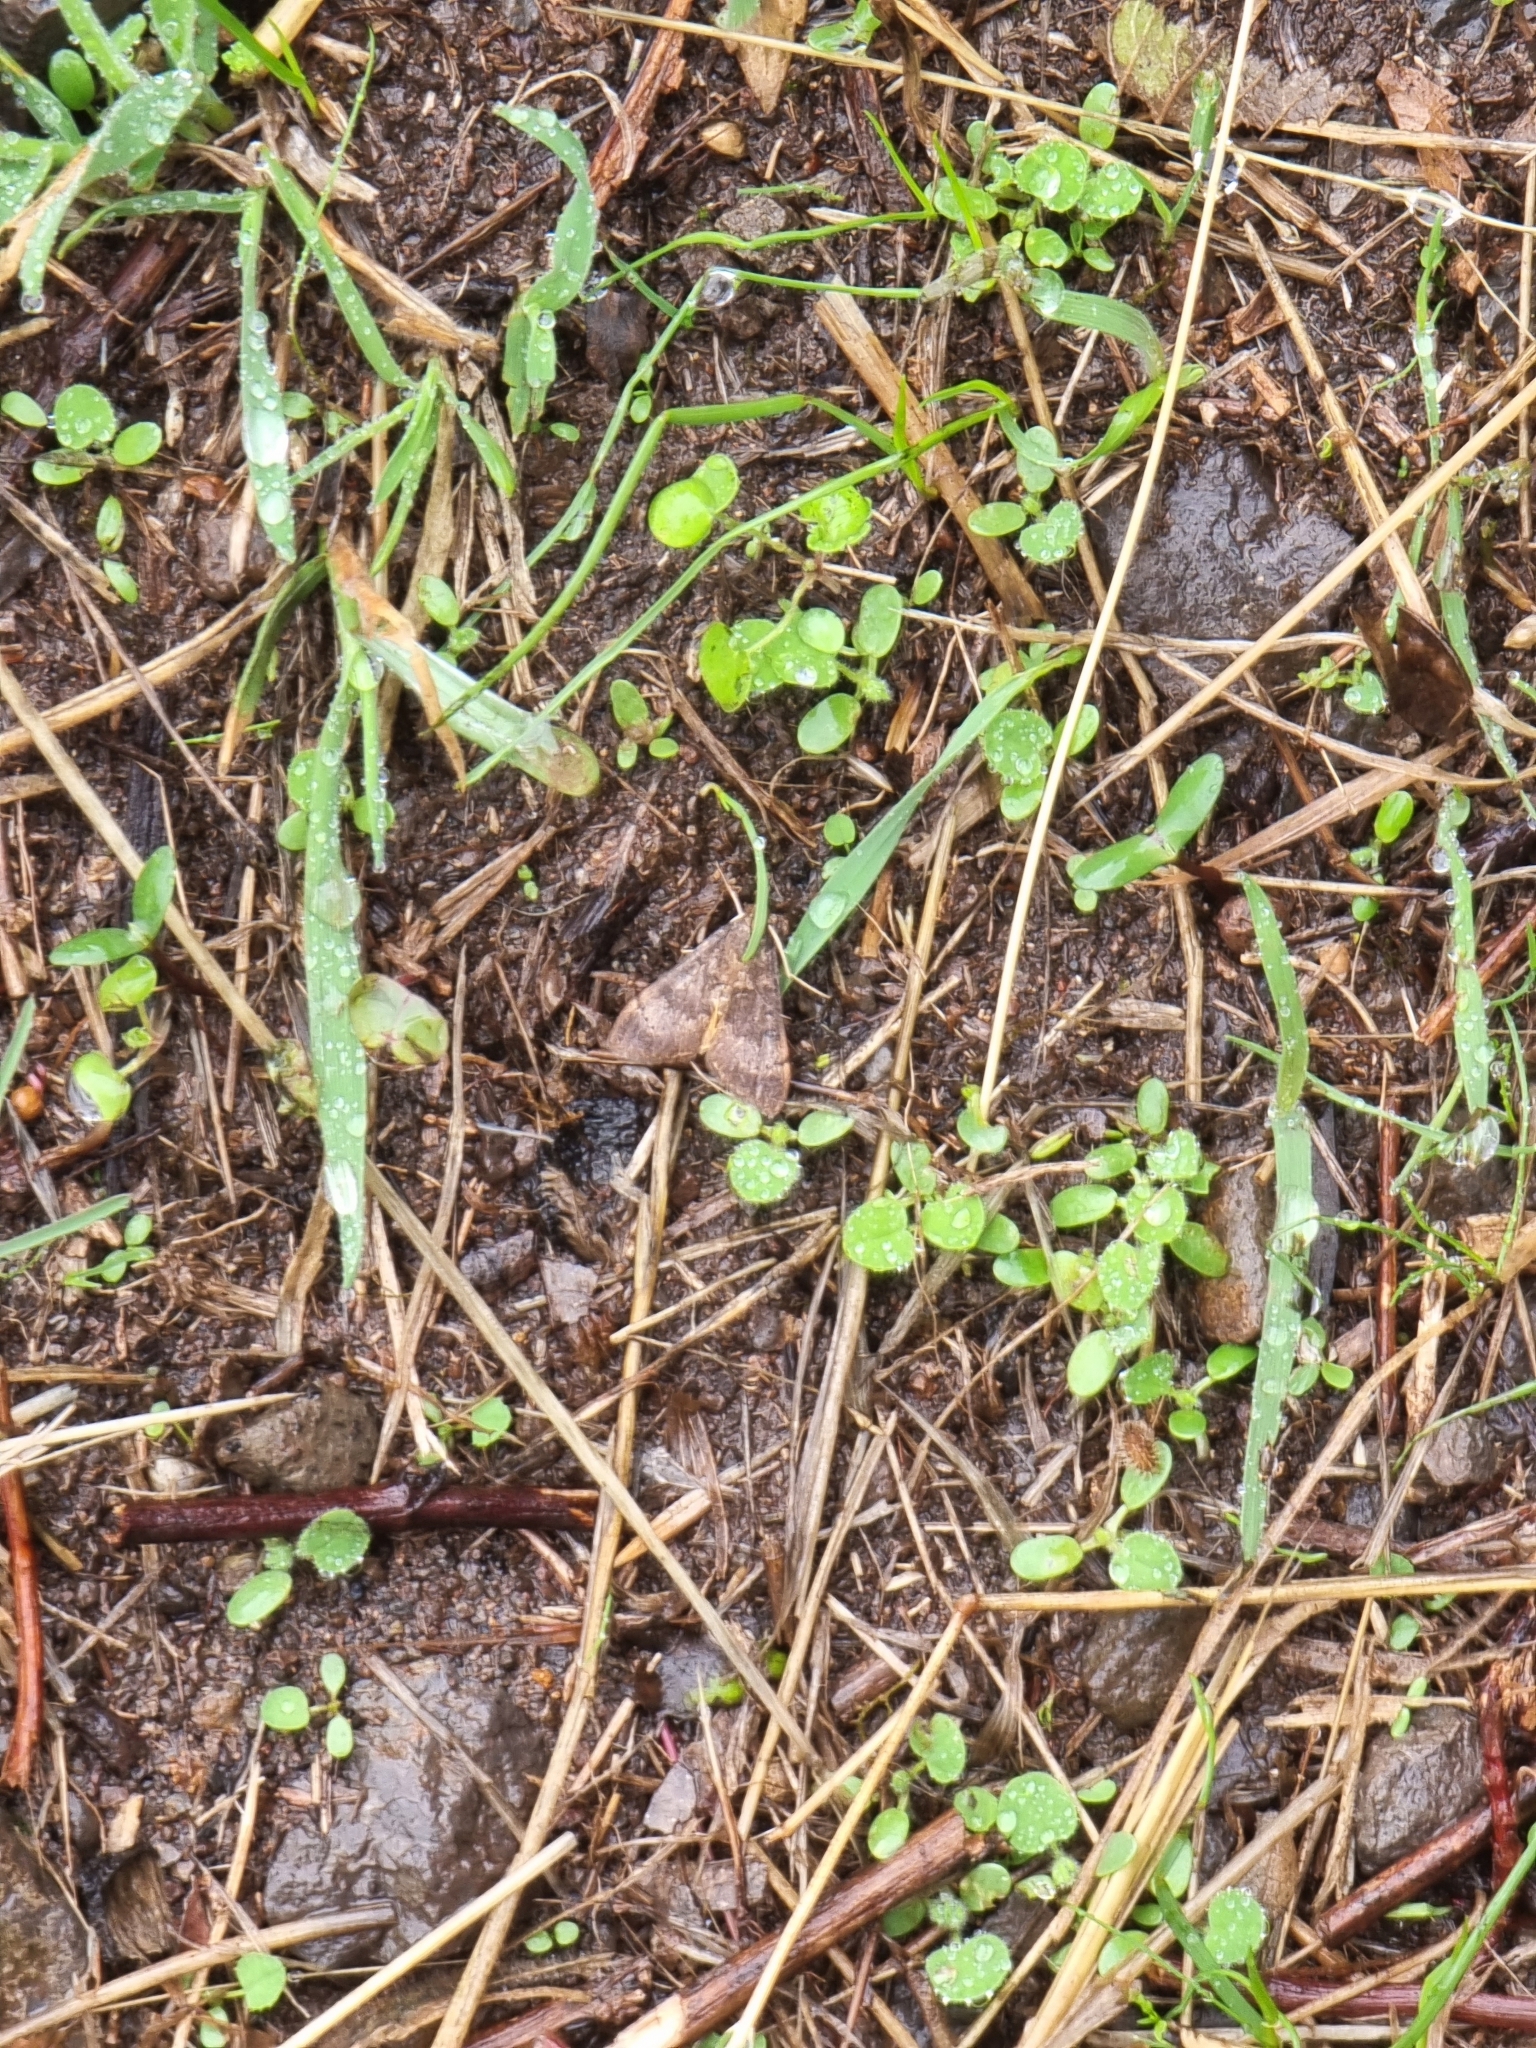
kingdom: Animalia
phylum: Arthropoda
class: Insecta
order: Lepidoptera
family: Crambidae
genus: Uresiphita
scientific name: Uresiphita gilvata
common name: Yellow-underwing pearl
